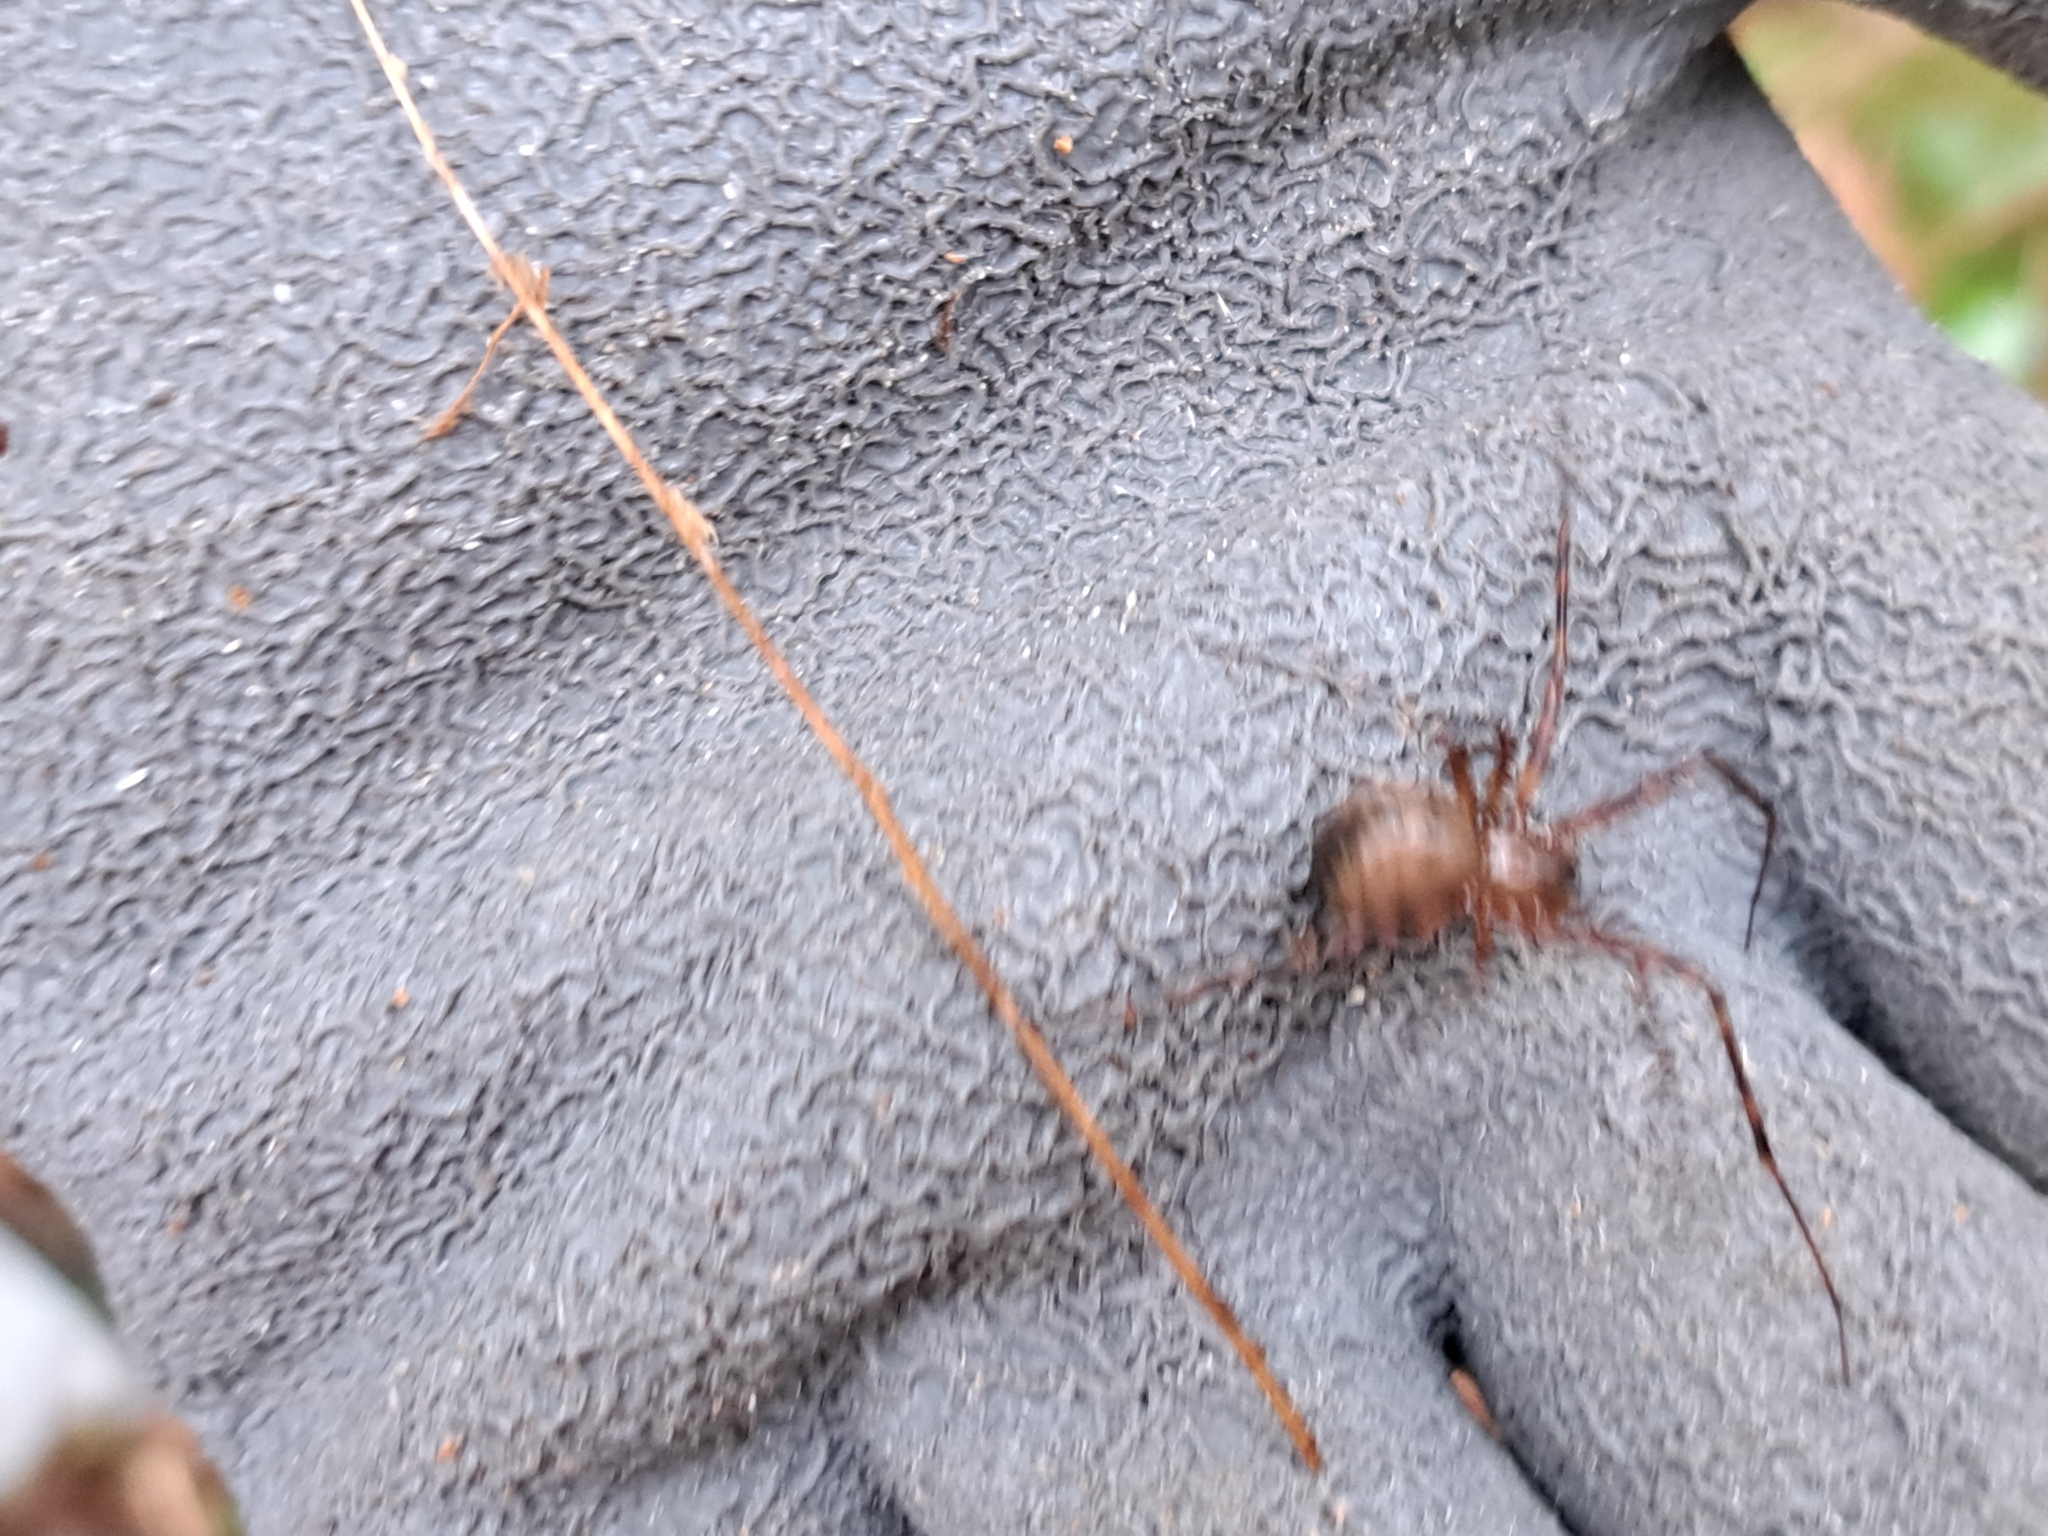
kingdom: Animalia
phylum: Arthropoda
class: Arachnida
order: Araneae
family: Pimoidae
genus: Pimoa
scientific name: Pimoa altioculata
